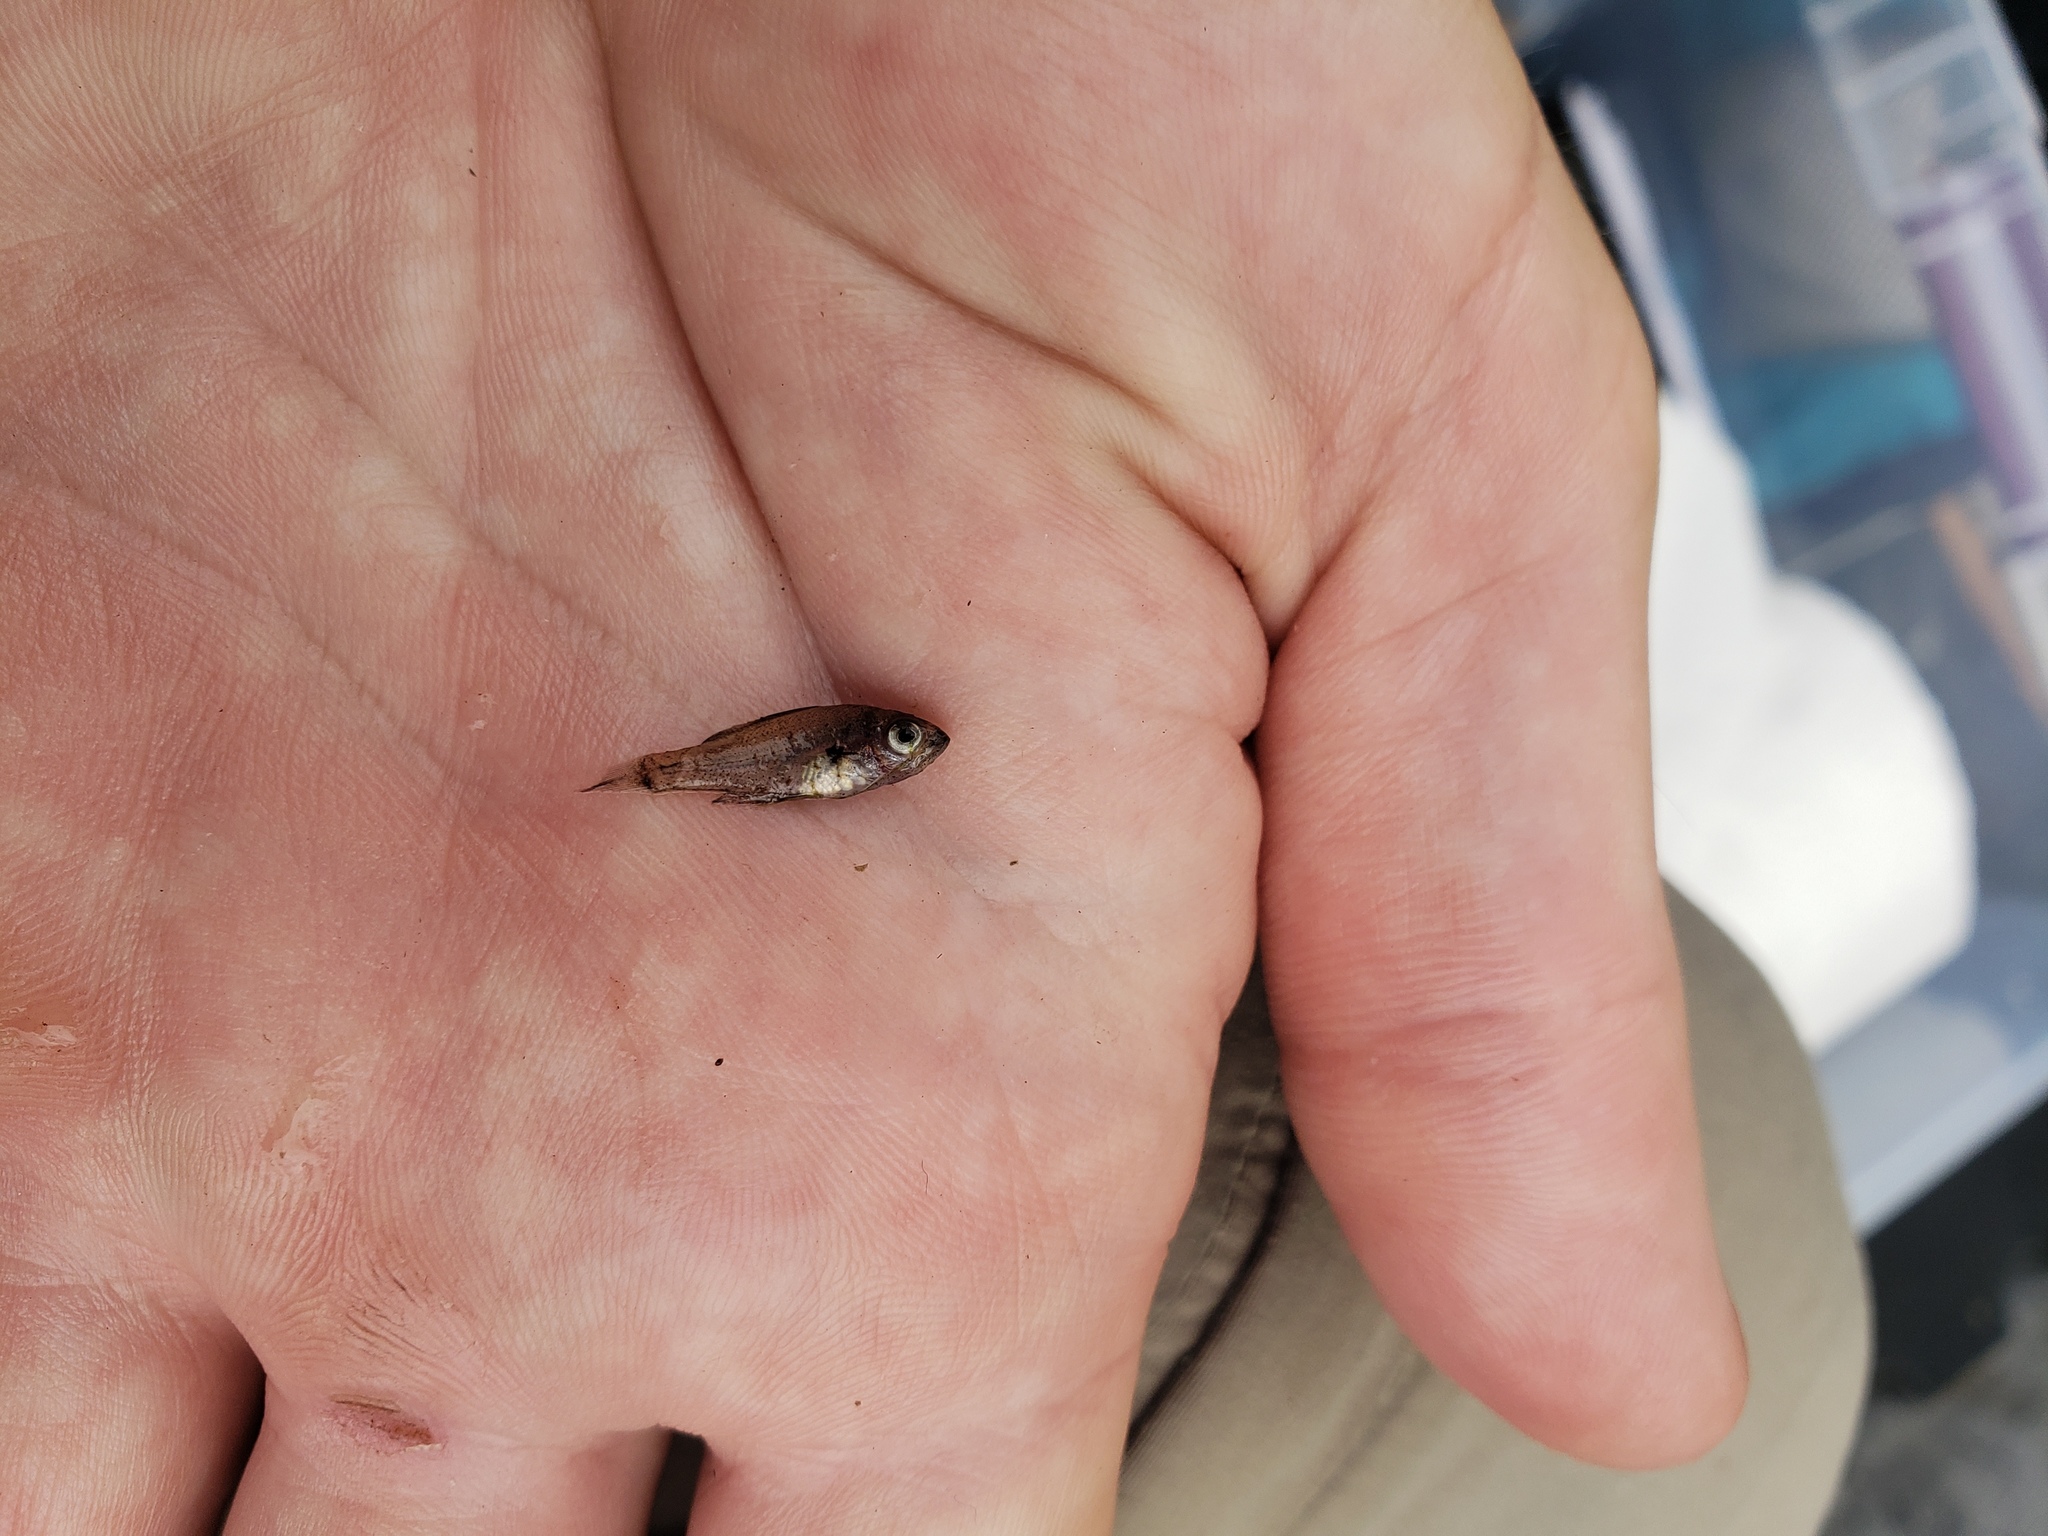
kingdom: Animalia
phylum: Chordata
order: Perciformes
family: Centrarchidae
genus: Lepomis
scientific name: Lepomis
